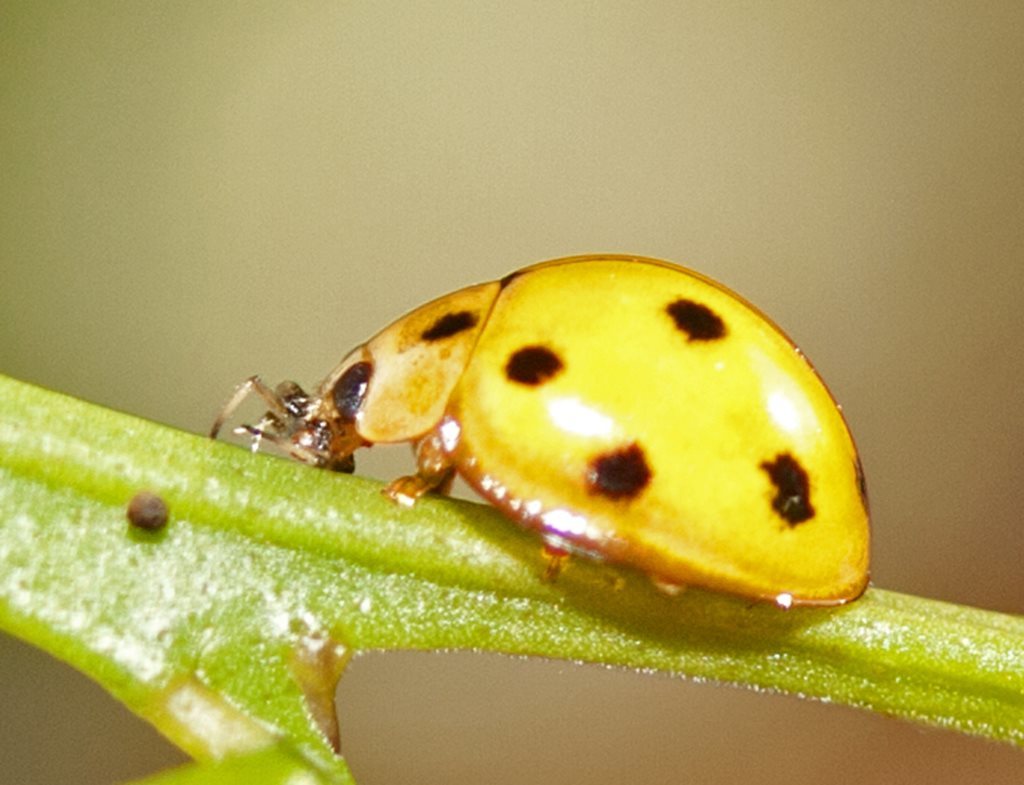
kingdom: Animalia
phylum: Arthropoda
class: Insecta
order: Coleoptera
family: Coccinellidae
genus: Coelophora
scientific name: Coelophora inaequalis
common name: Common australian lady beetle
